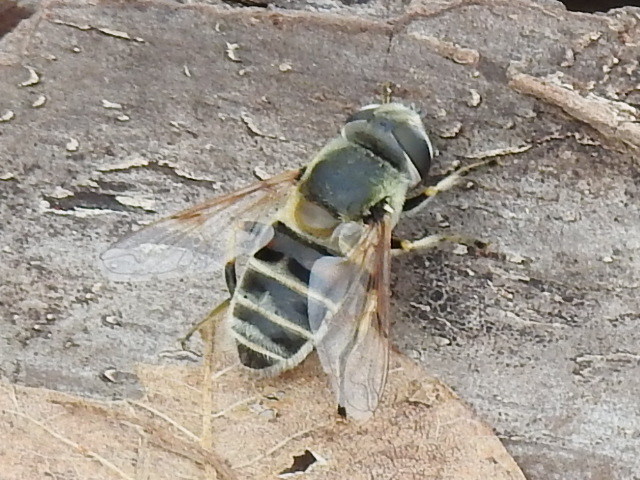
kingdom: Animalia
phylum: Arthropoda
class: Insecta
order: Diptera
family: Syrphidae
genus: Eristalis
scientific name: Eristalis stipator
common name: Yellow-shouldered drone fly
